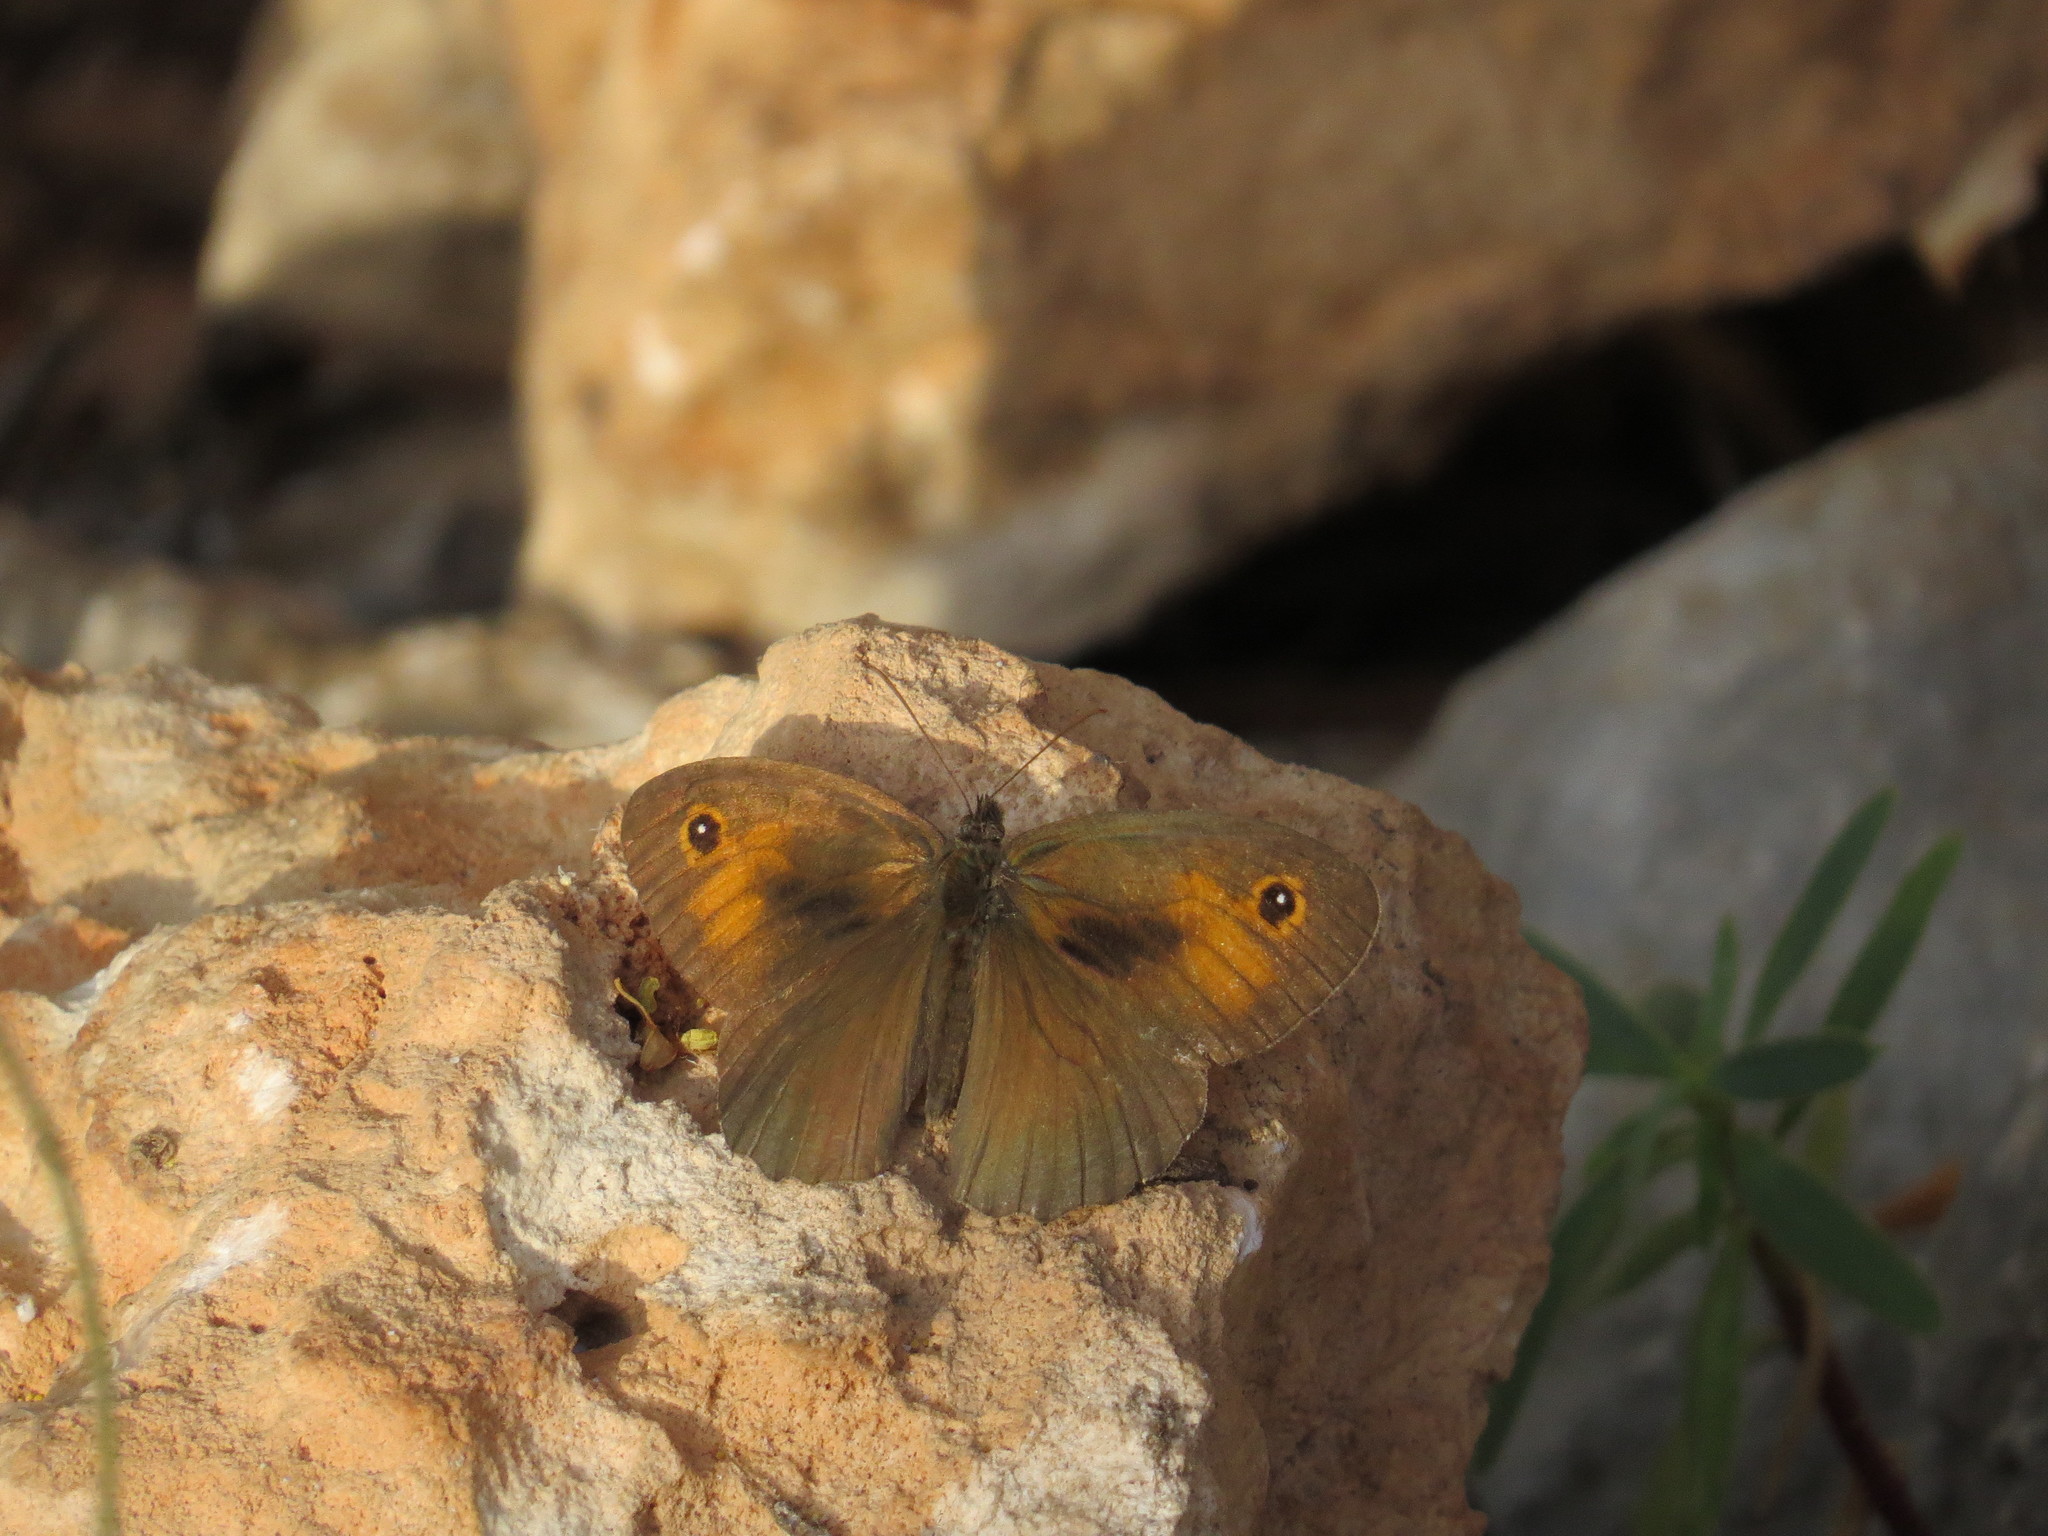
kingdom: Animalia
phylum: Arthropoda
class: Insecta
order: Lepidoptera
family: Nymphalidae
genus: Maniola
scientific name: Maniola telmessia
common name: Persian meadow brown
